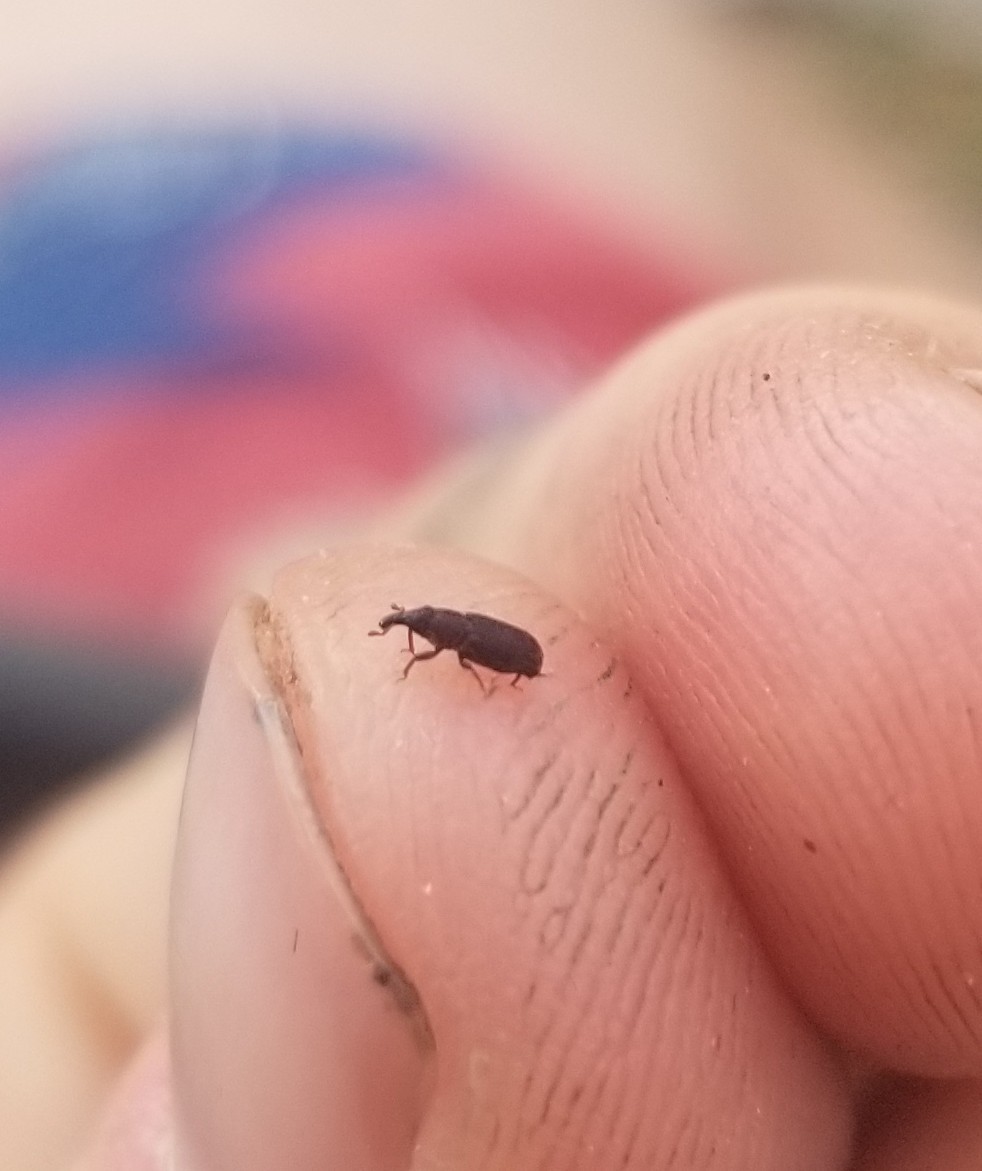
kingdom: Animalia
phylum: Arthropoda
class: Insecta
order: Coleoptera
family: Dryophthoridae
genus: Dryophthorus
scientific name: Dryophthorus americanus
